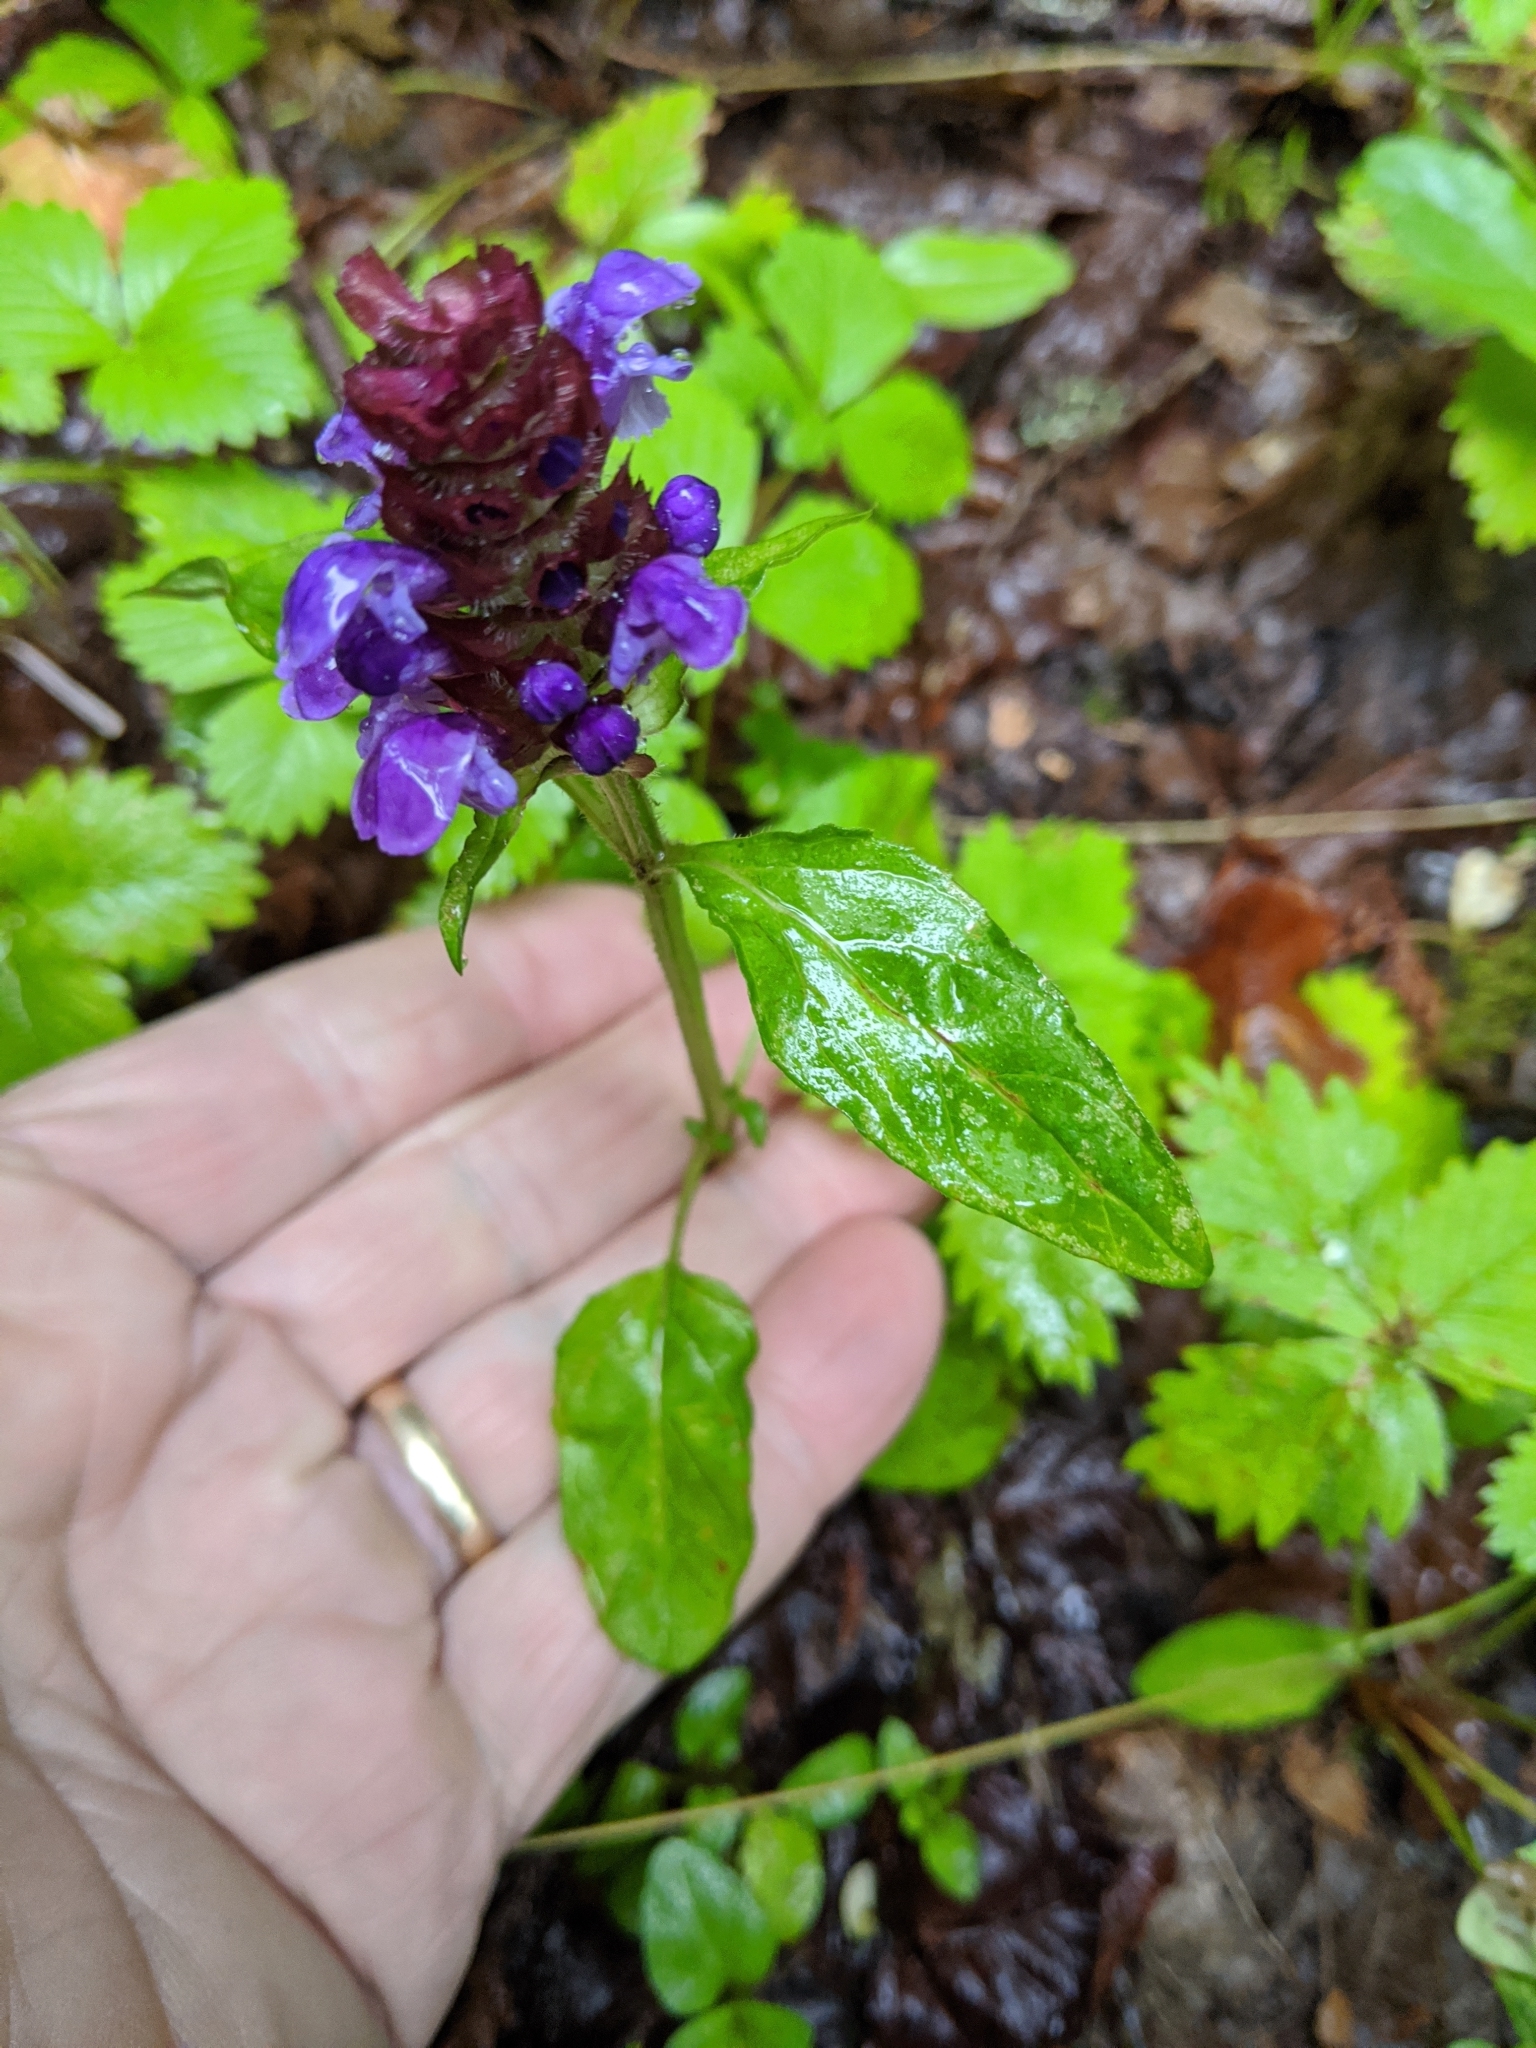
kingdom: Plantae
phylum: Tracheophyta
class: Magnoliopsida
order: Lamiales
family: Lamiaceae
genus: Prunella
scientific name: Prunella vulgaris
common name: Heal-all
